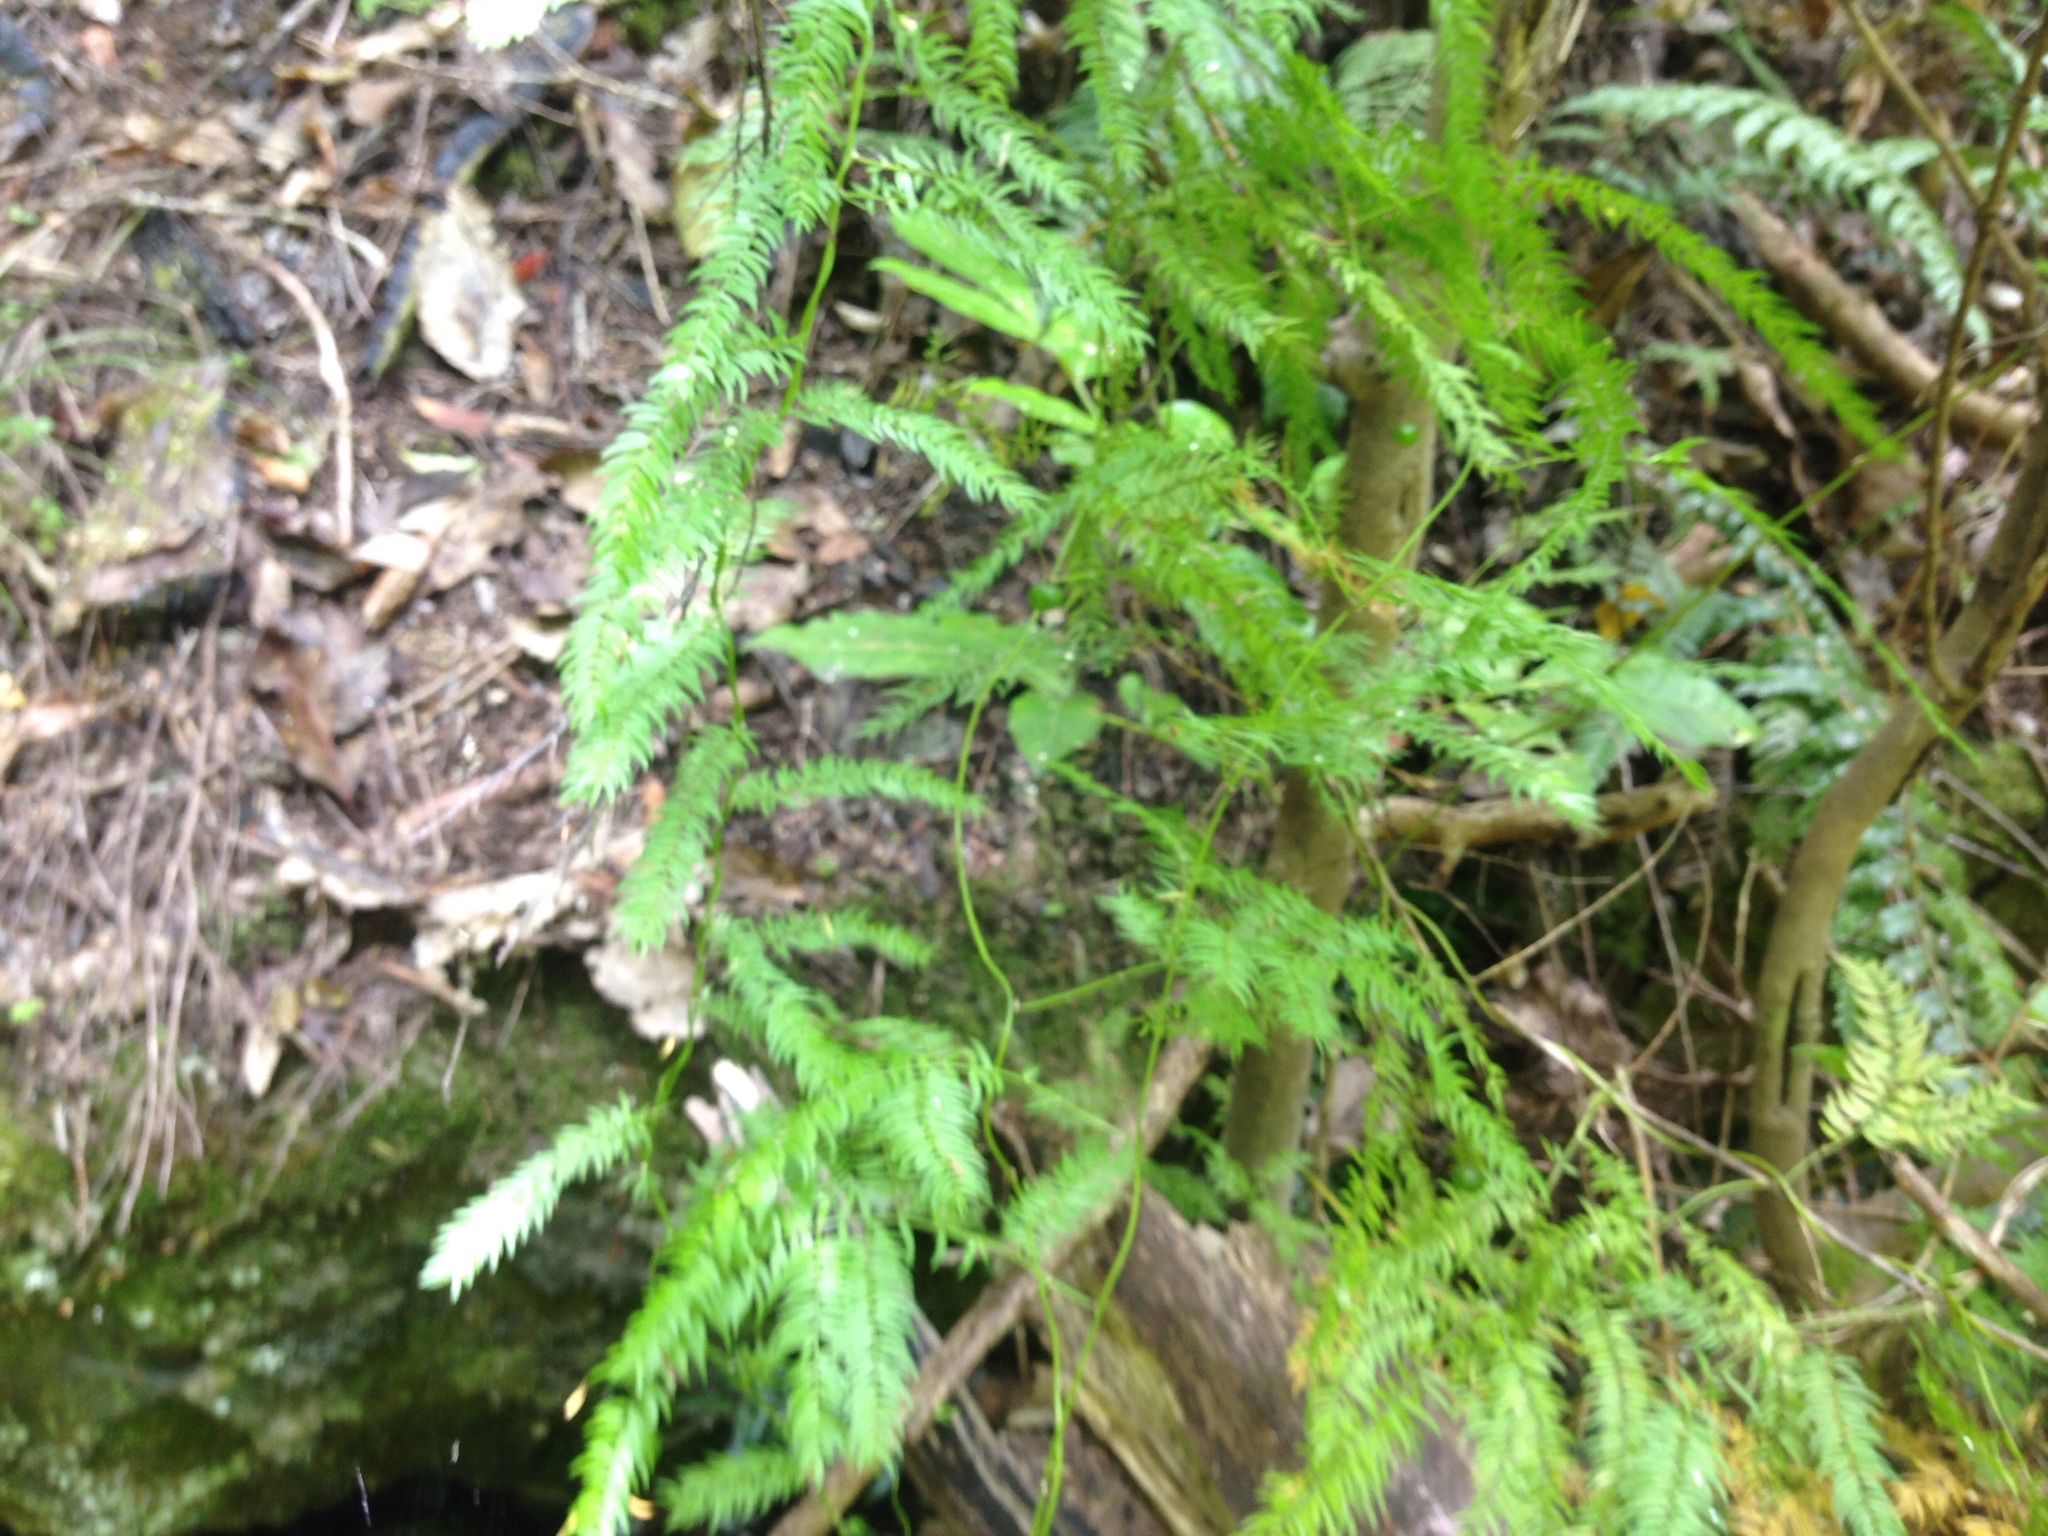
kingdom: Plantae
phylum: Tracheophyta
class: Liliopsida
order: Asparagales
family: Asparagaceae
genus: Asparagus
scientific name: Asparagus scandens
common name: Asparagus-fern
